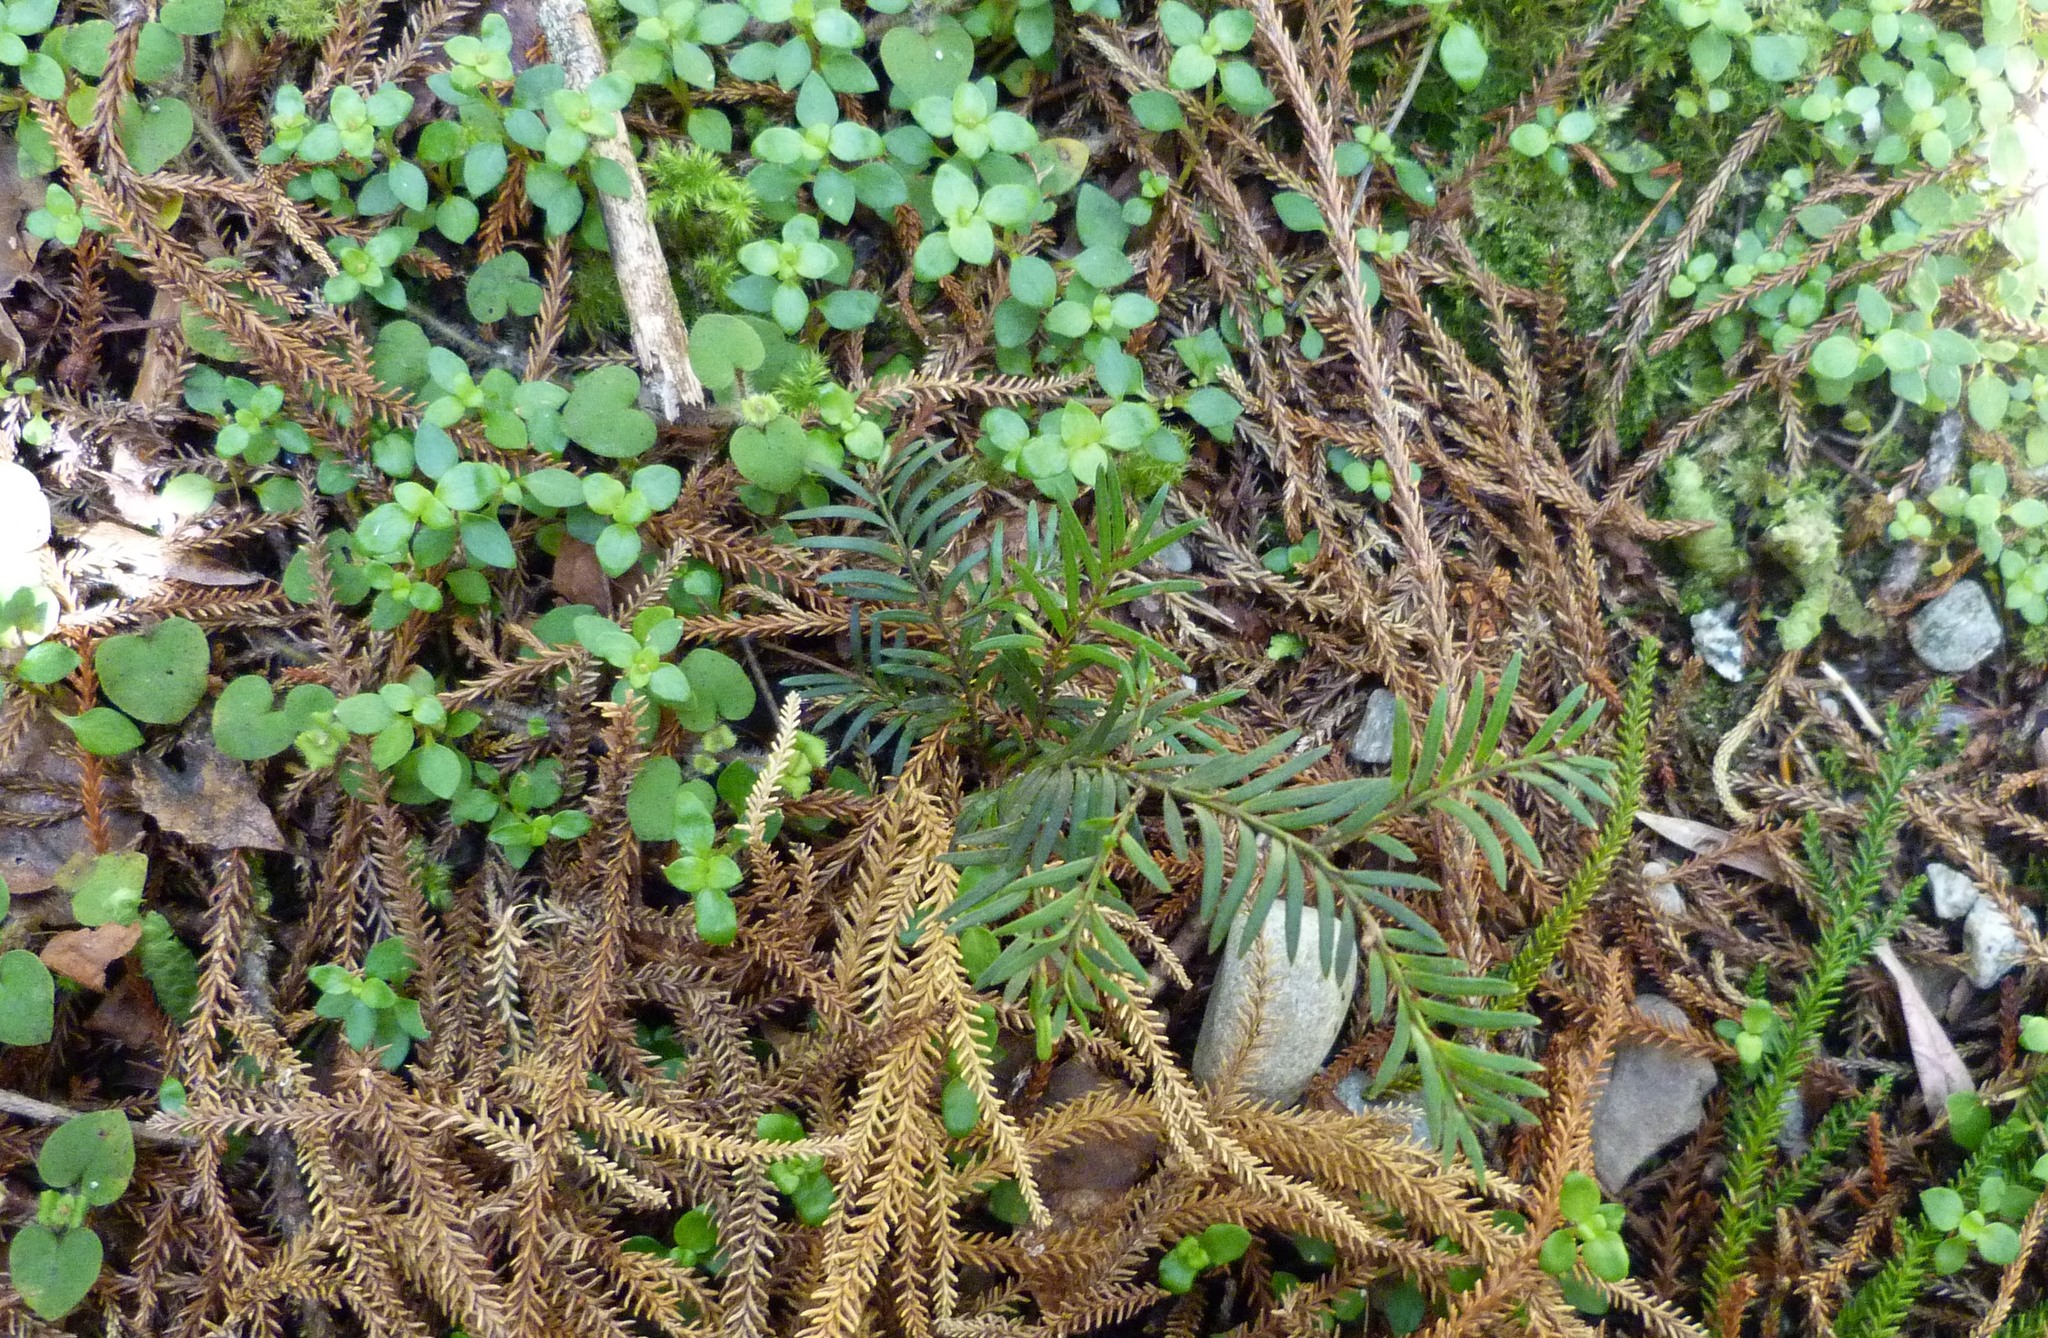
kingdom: Plantae
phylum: Tracheophyta
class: Pinopsida
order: Pinales
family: Podocarpaceae
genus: Prumnopitys
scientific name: Prumnopitys ferruginea
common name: Brown pine
